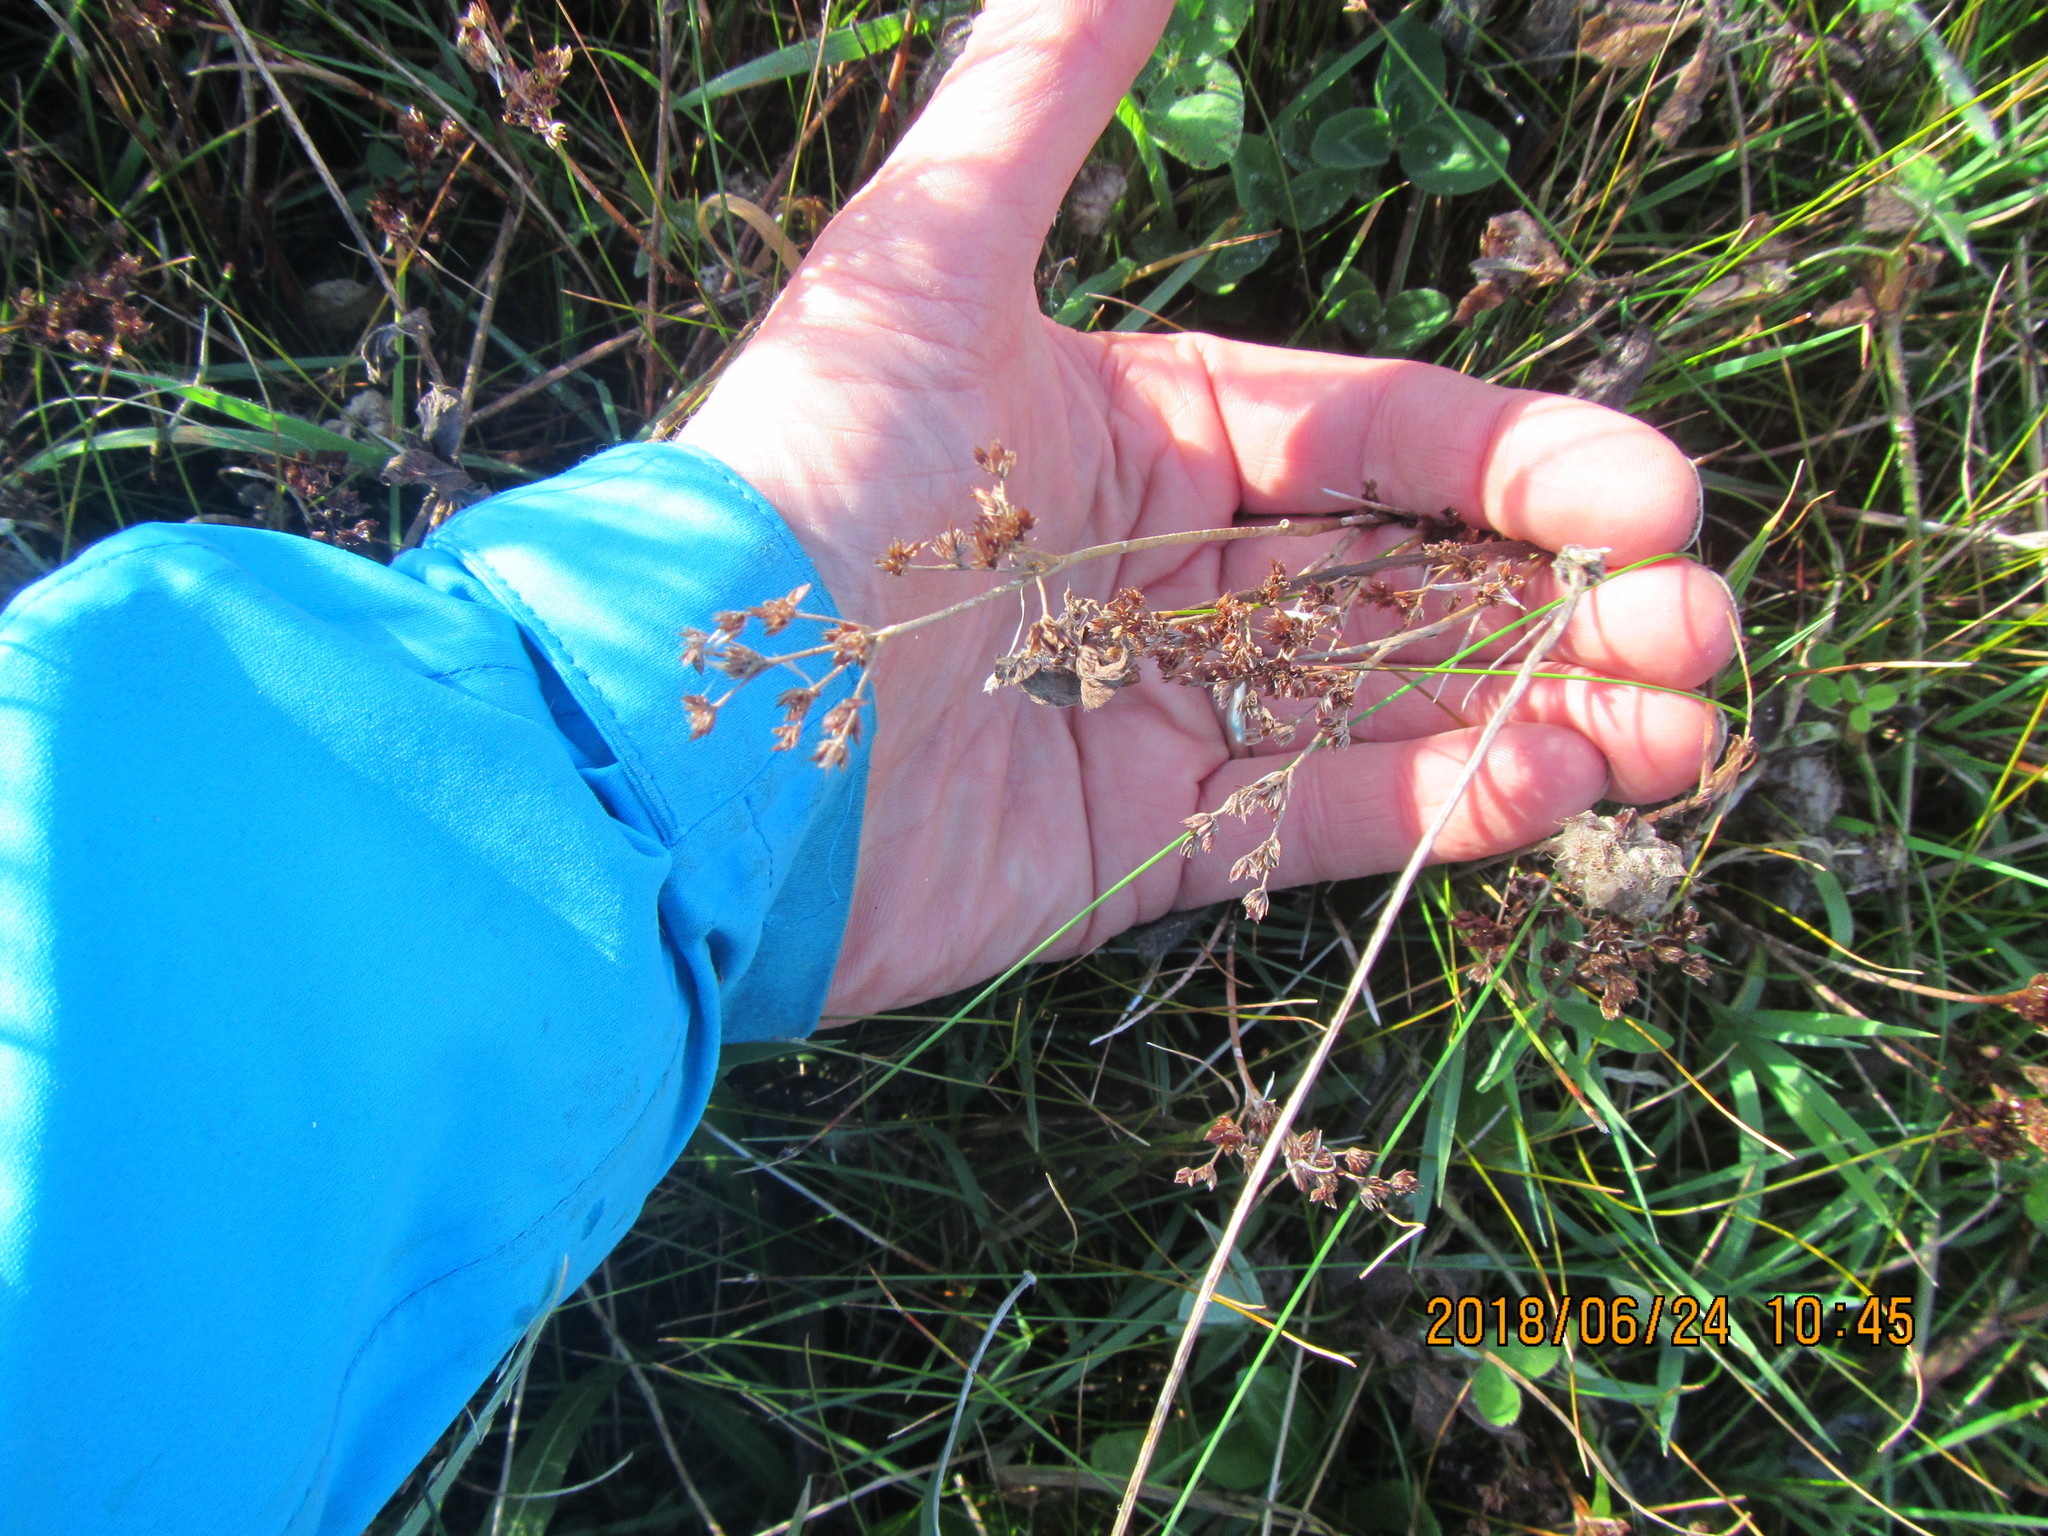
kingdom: Plantae
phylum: Tracheophyta
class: Liliopsida
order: Poales
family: Juncaceae
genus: Juncus
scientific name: Juncus articulatus
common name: Jointed rush
